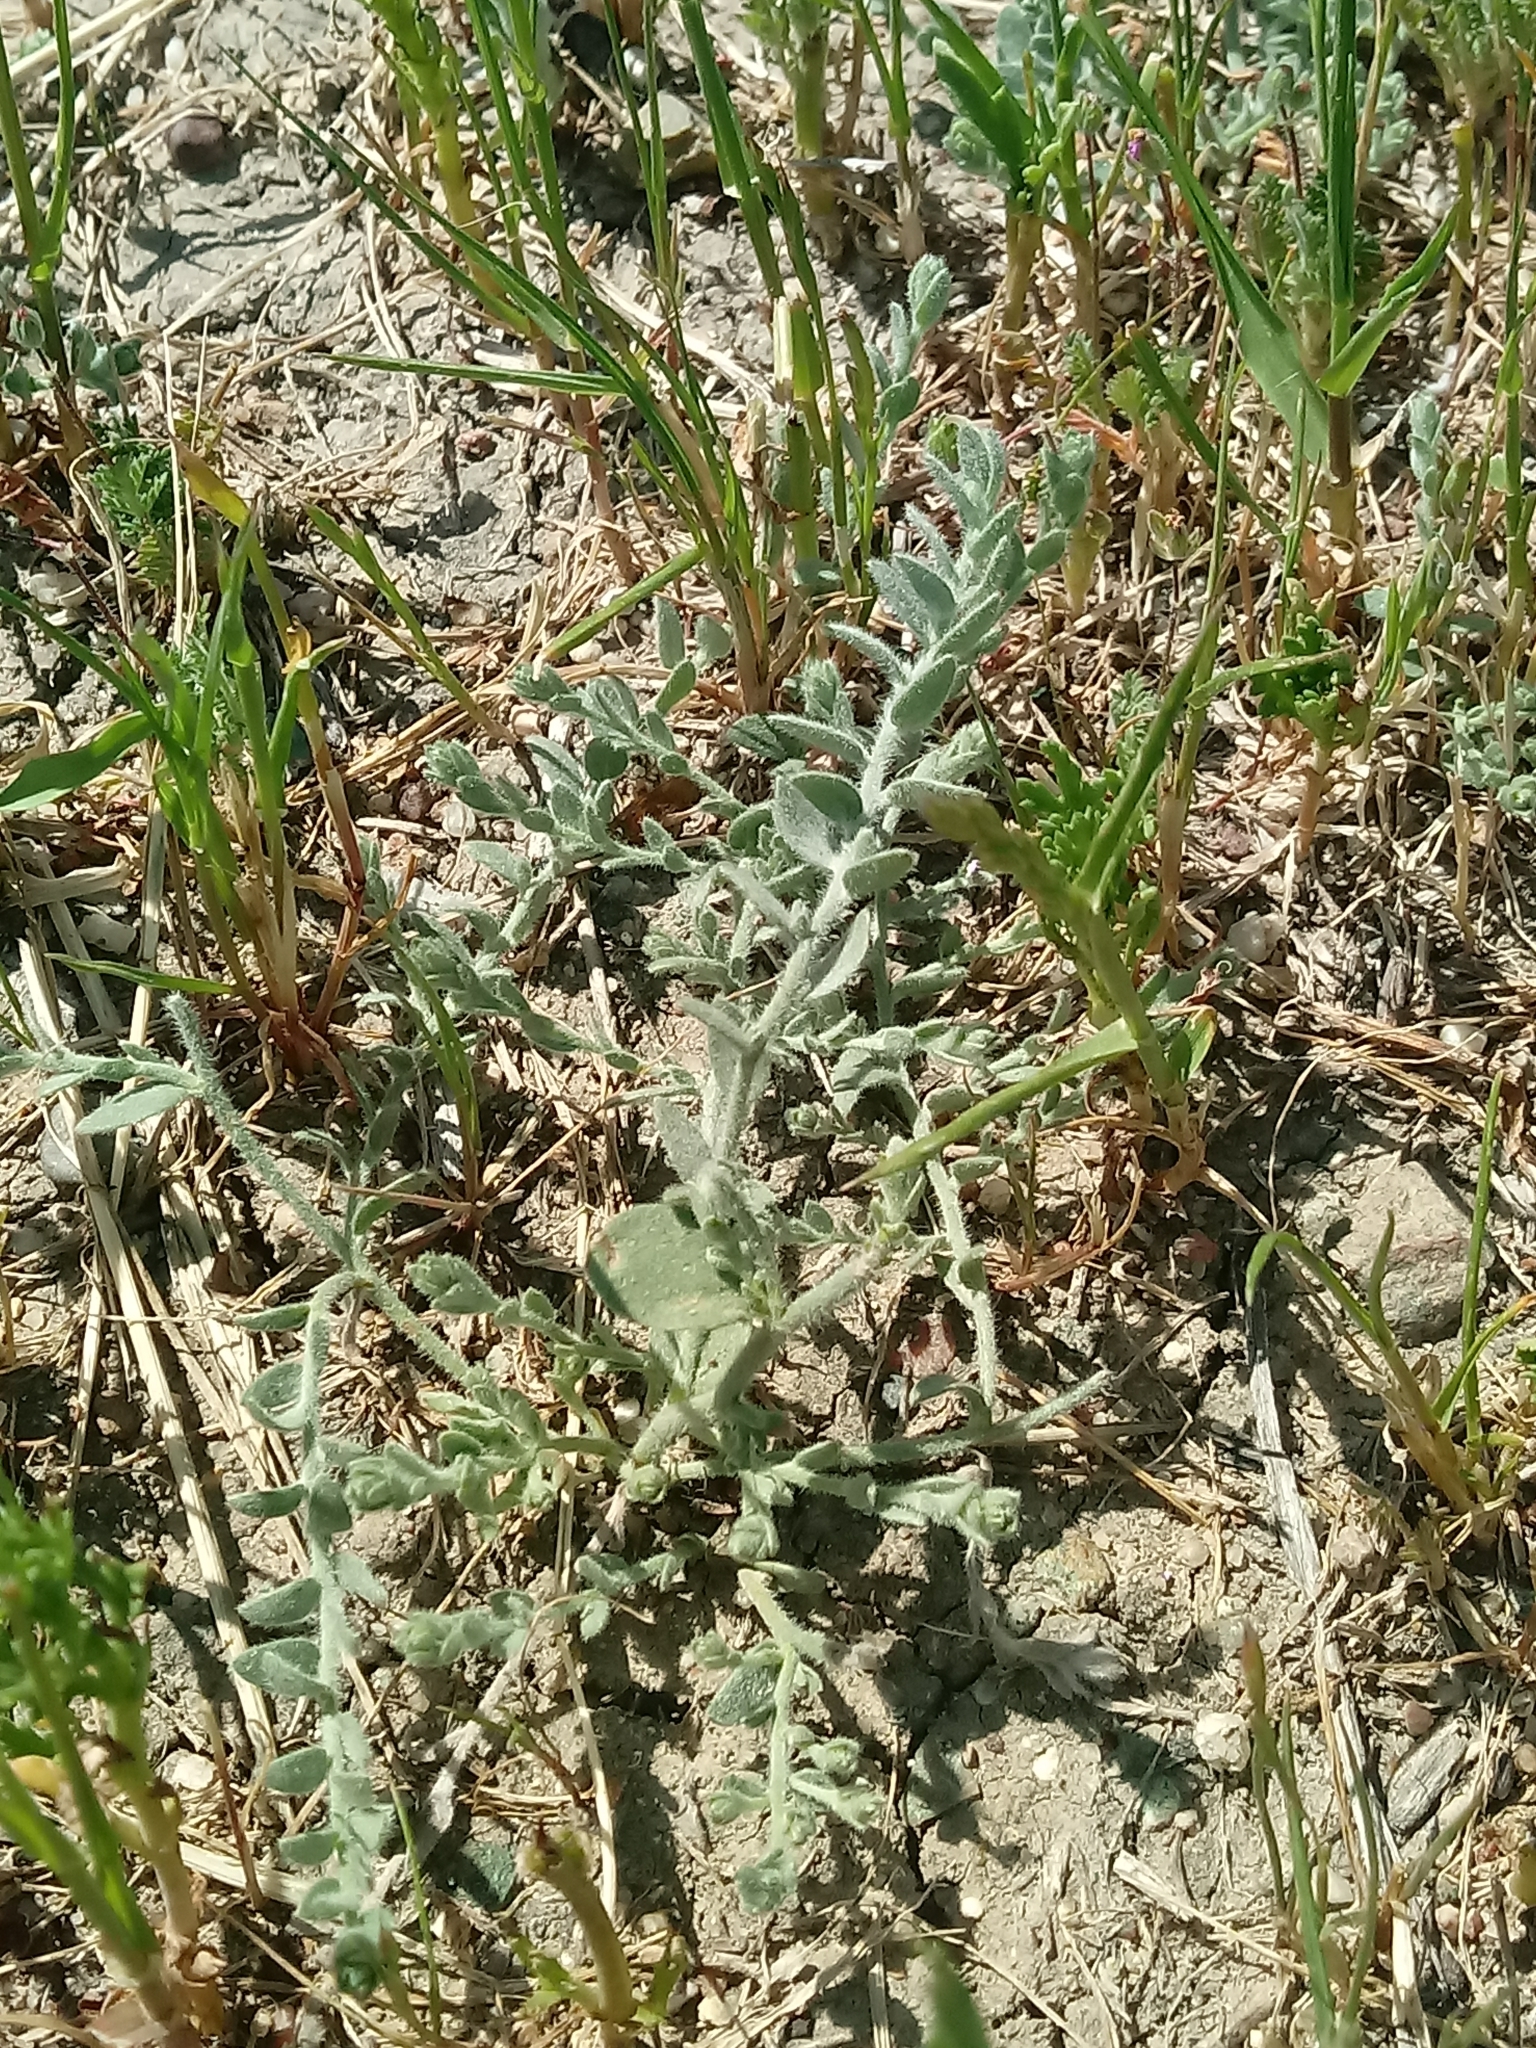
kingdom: Plantae
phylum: Tracheophyta
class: Magnoliopsida
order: Solanales
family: Convolvulaceae
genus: Cressa
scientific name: Cressa truxillensis
